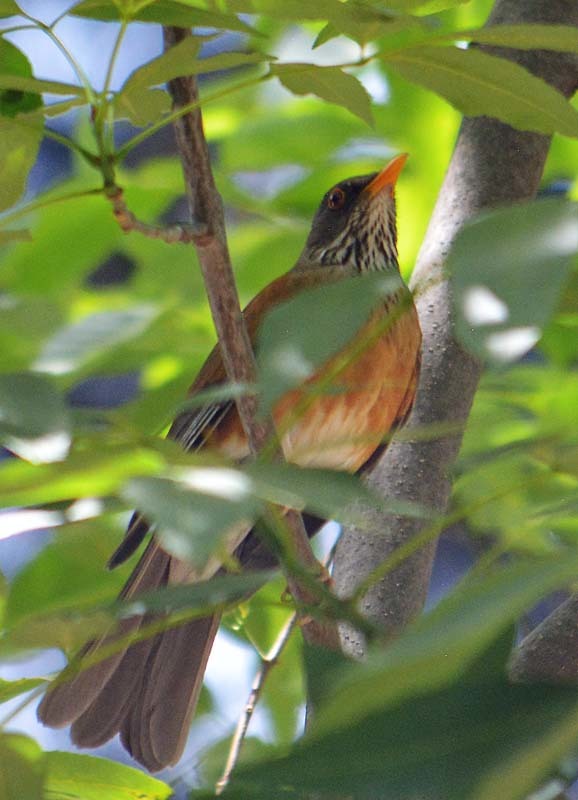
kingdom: Animalia
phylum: Chordata
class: Aves
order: Passeriformes
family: Turdidae
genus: Turdus
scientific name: Turdus rufopalliatus
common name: Rufous-backed robin
